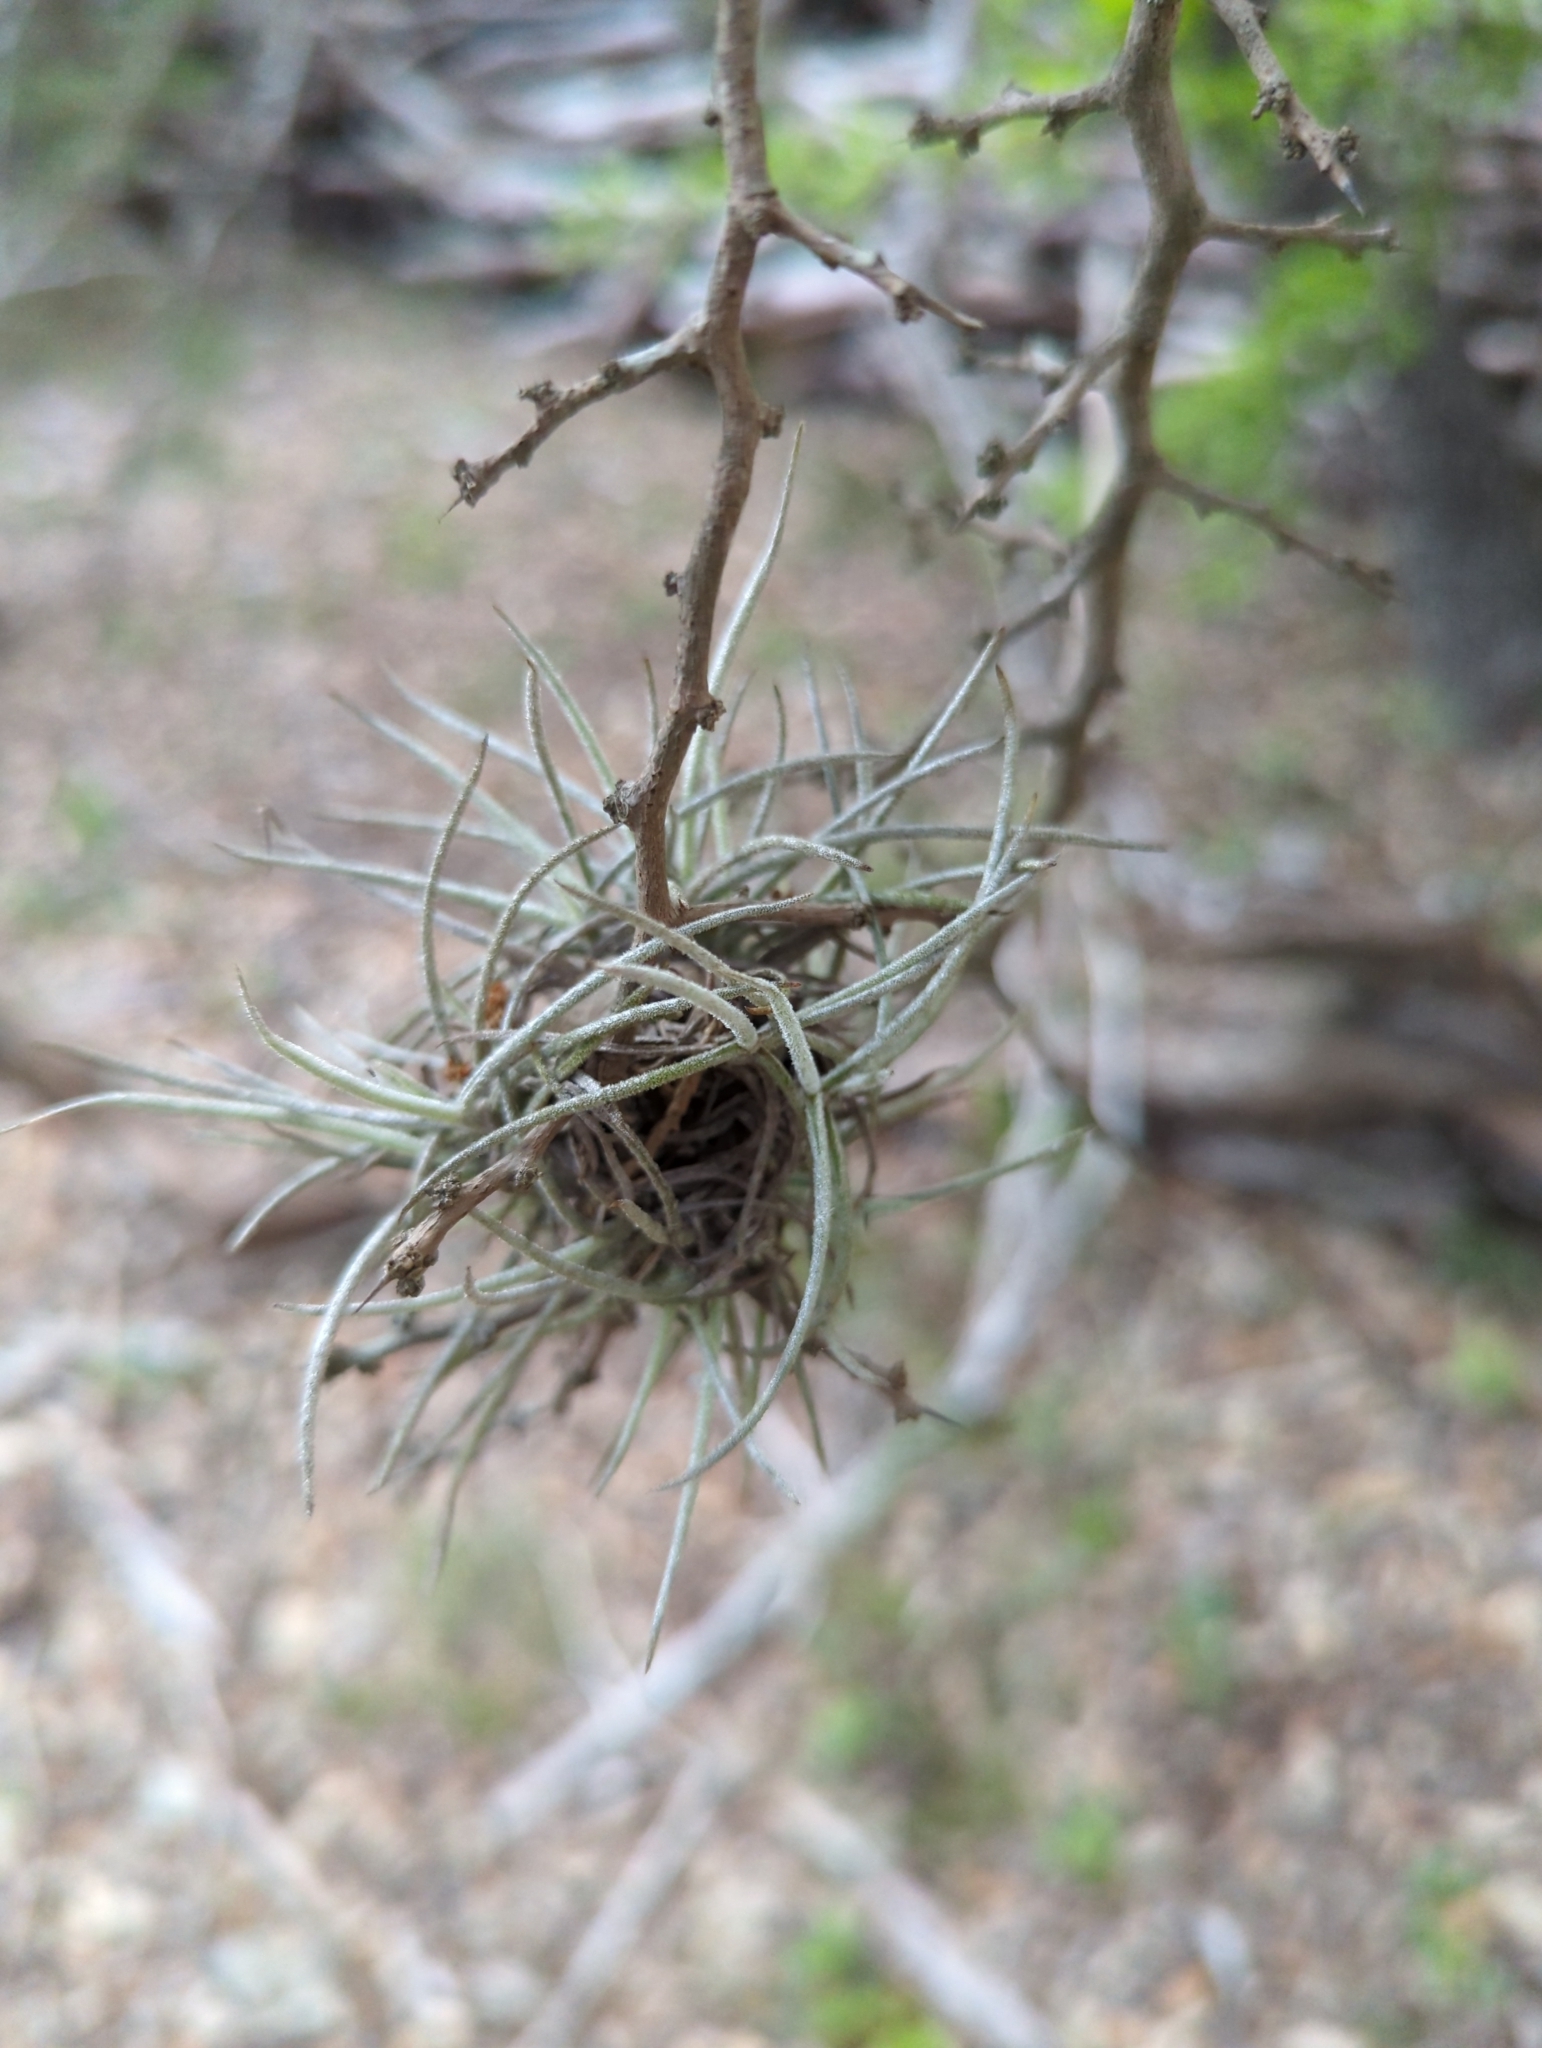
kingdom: Plantae
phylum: Tracheophyta
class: Liliopsida
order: Poales
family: Bromeliaceae
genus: Tillandsia
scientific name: Tillandsia recurvata
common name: Small ballmoss
